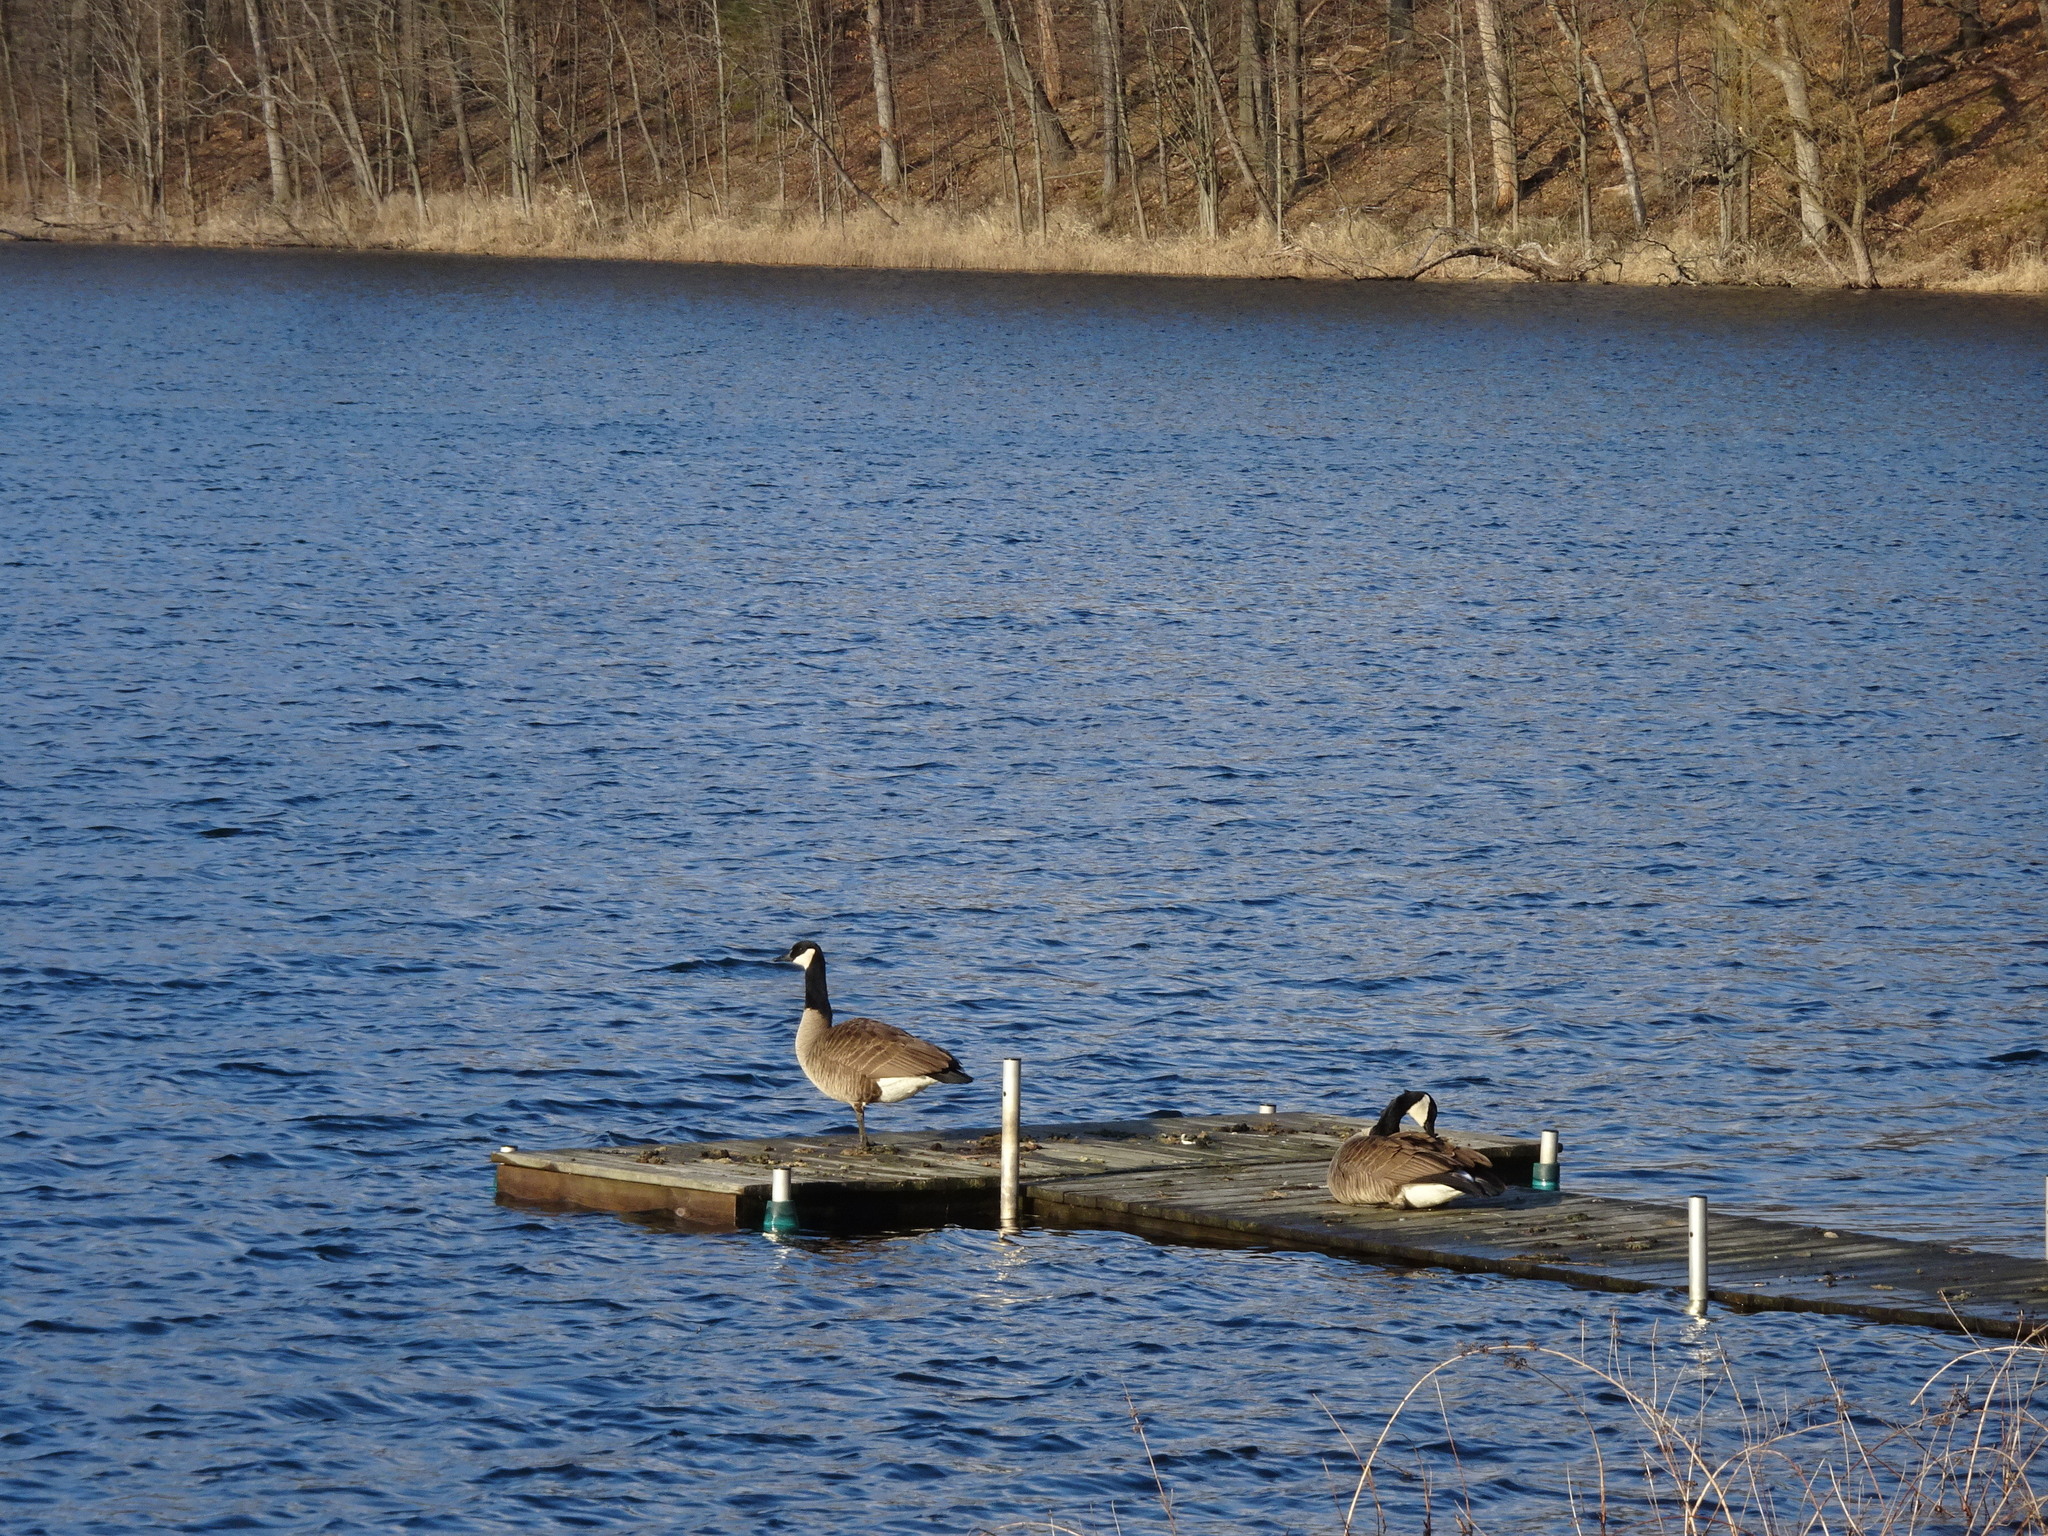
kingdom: Animalia
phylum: Chordata
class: Aves
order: Anseriformes
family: Anatidae
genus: Branta
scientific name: Branta canadensis
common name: Canada goose
